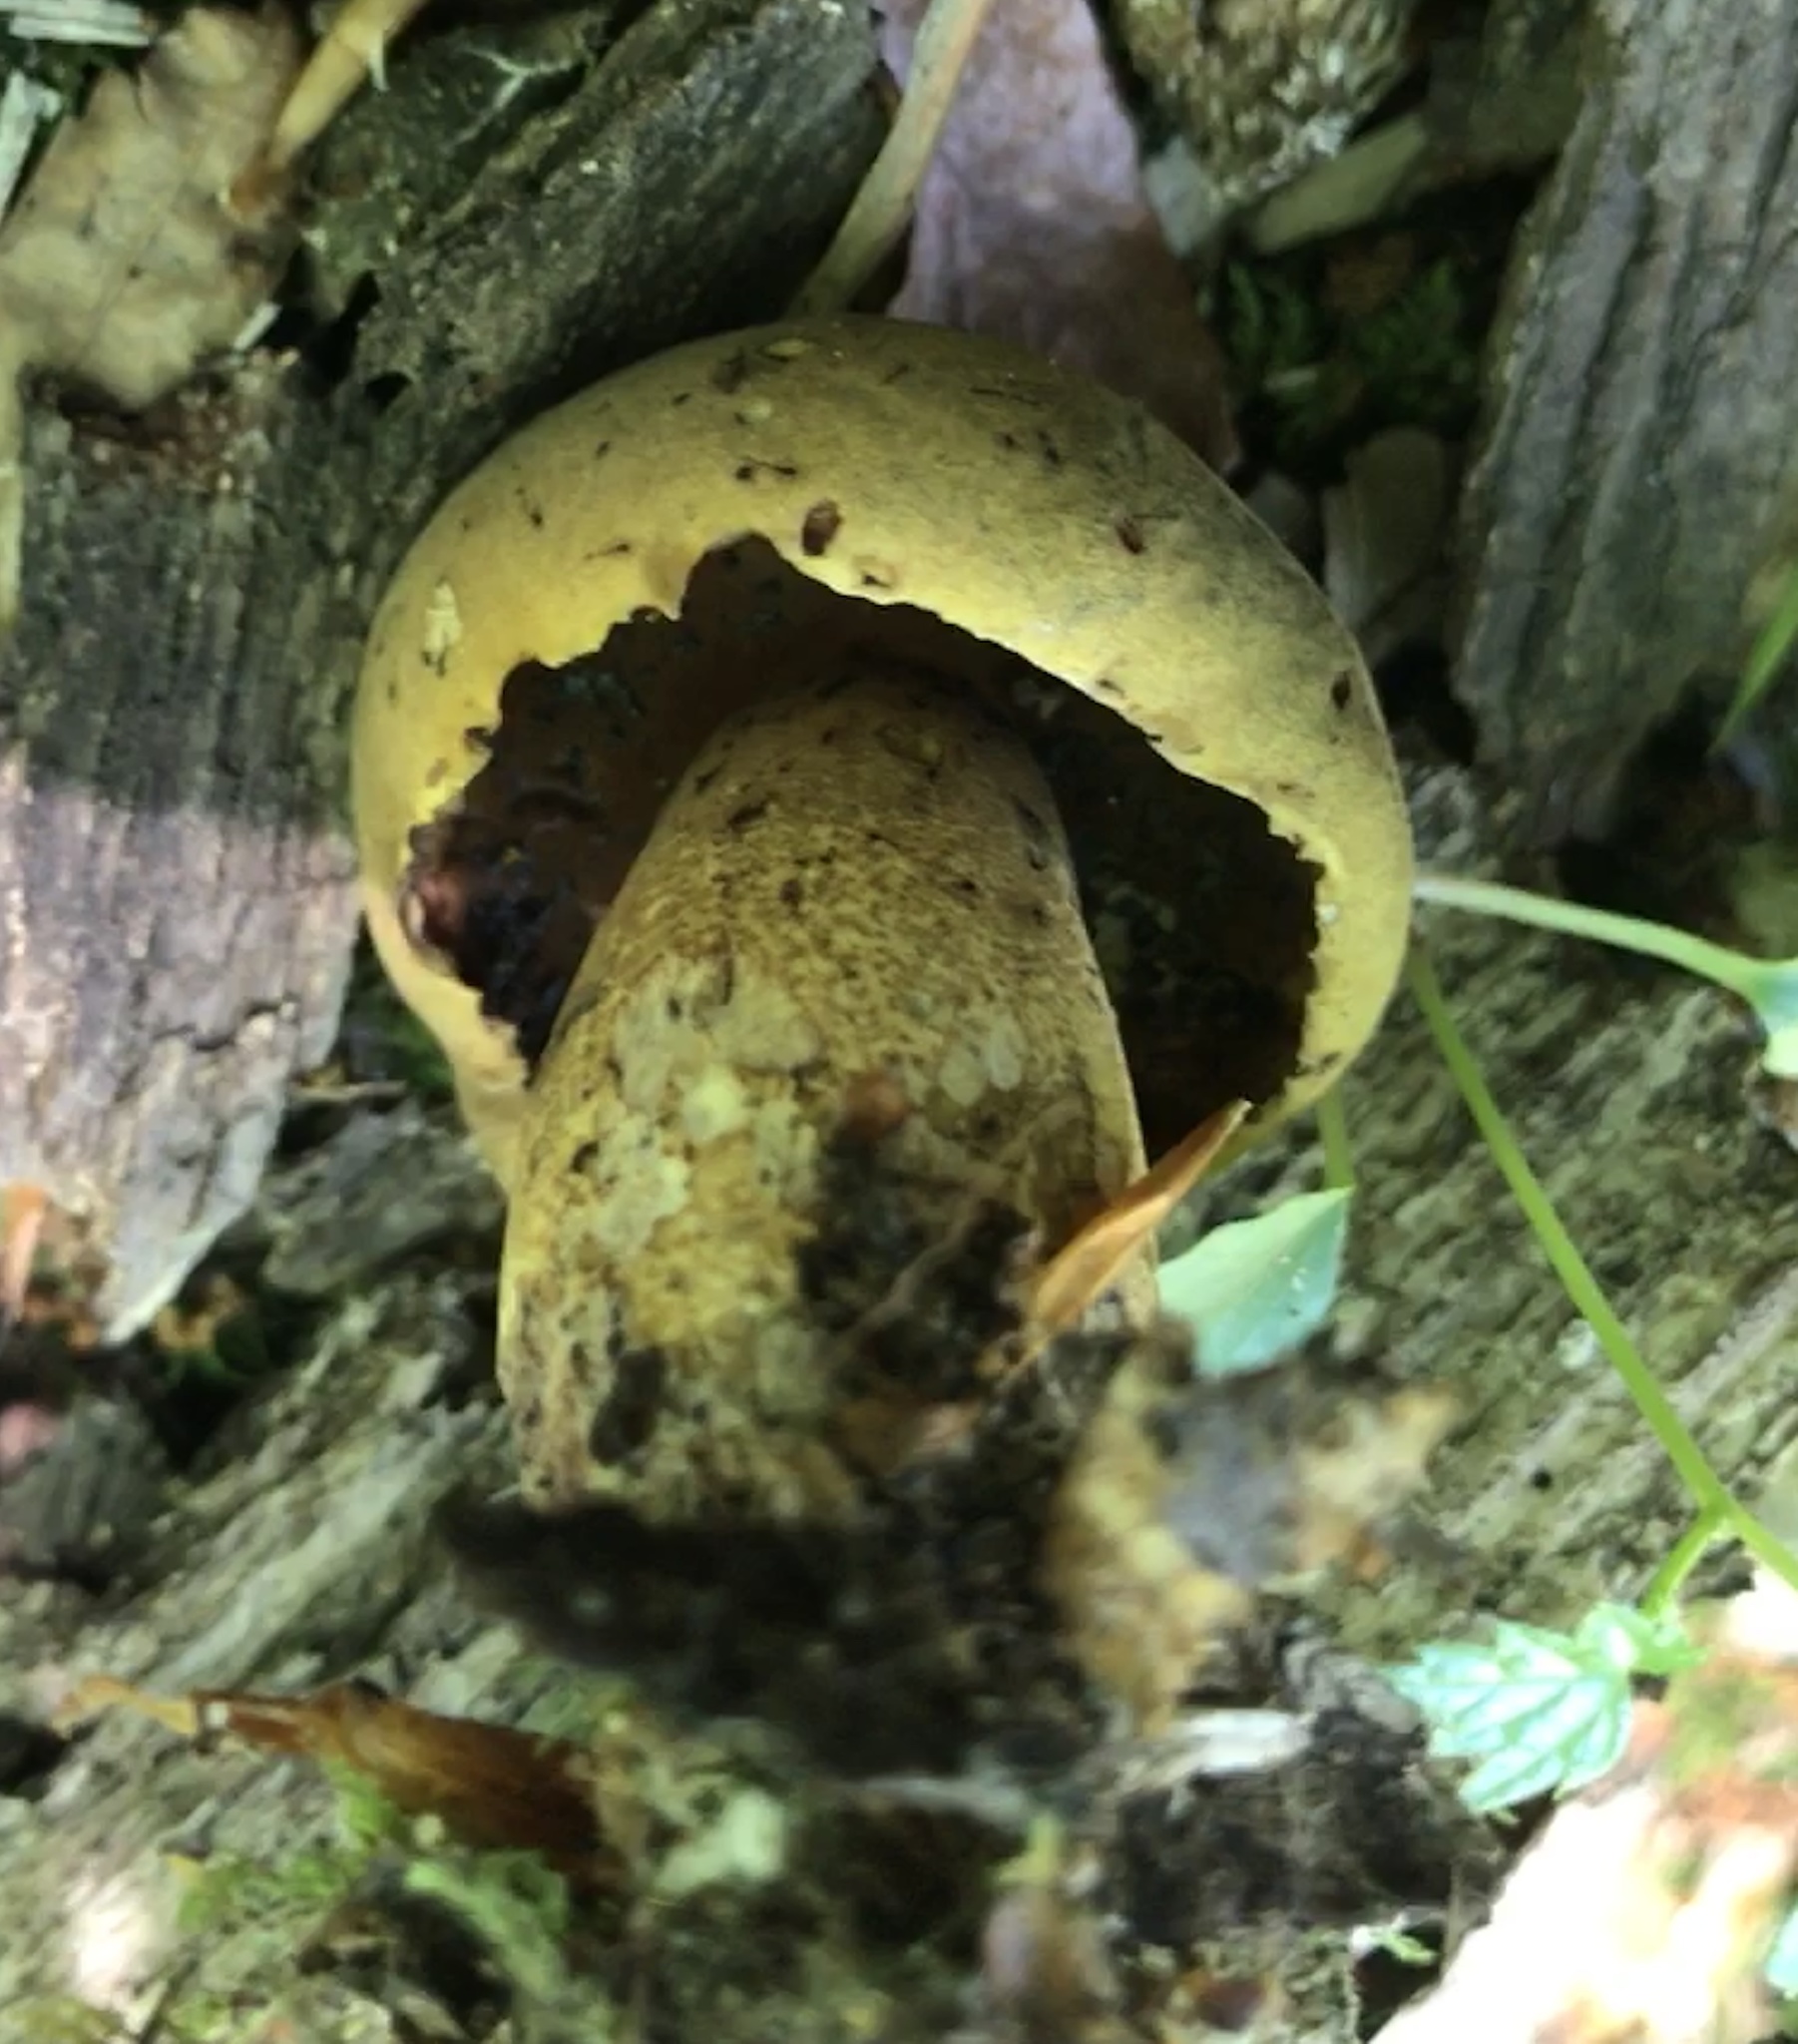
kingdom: Fungi
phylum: Basidiomycota
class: Agaricomycetes
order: Boletales
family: Boletaceae
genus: Boletus
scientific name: Boletus vermiculosoides
